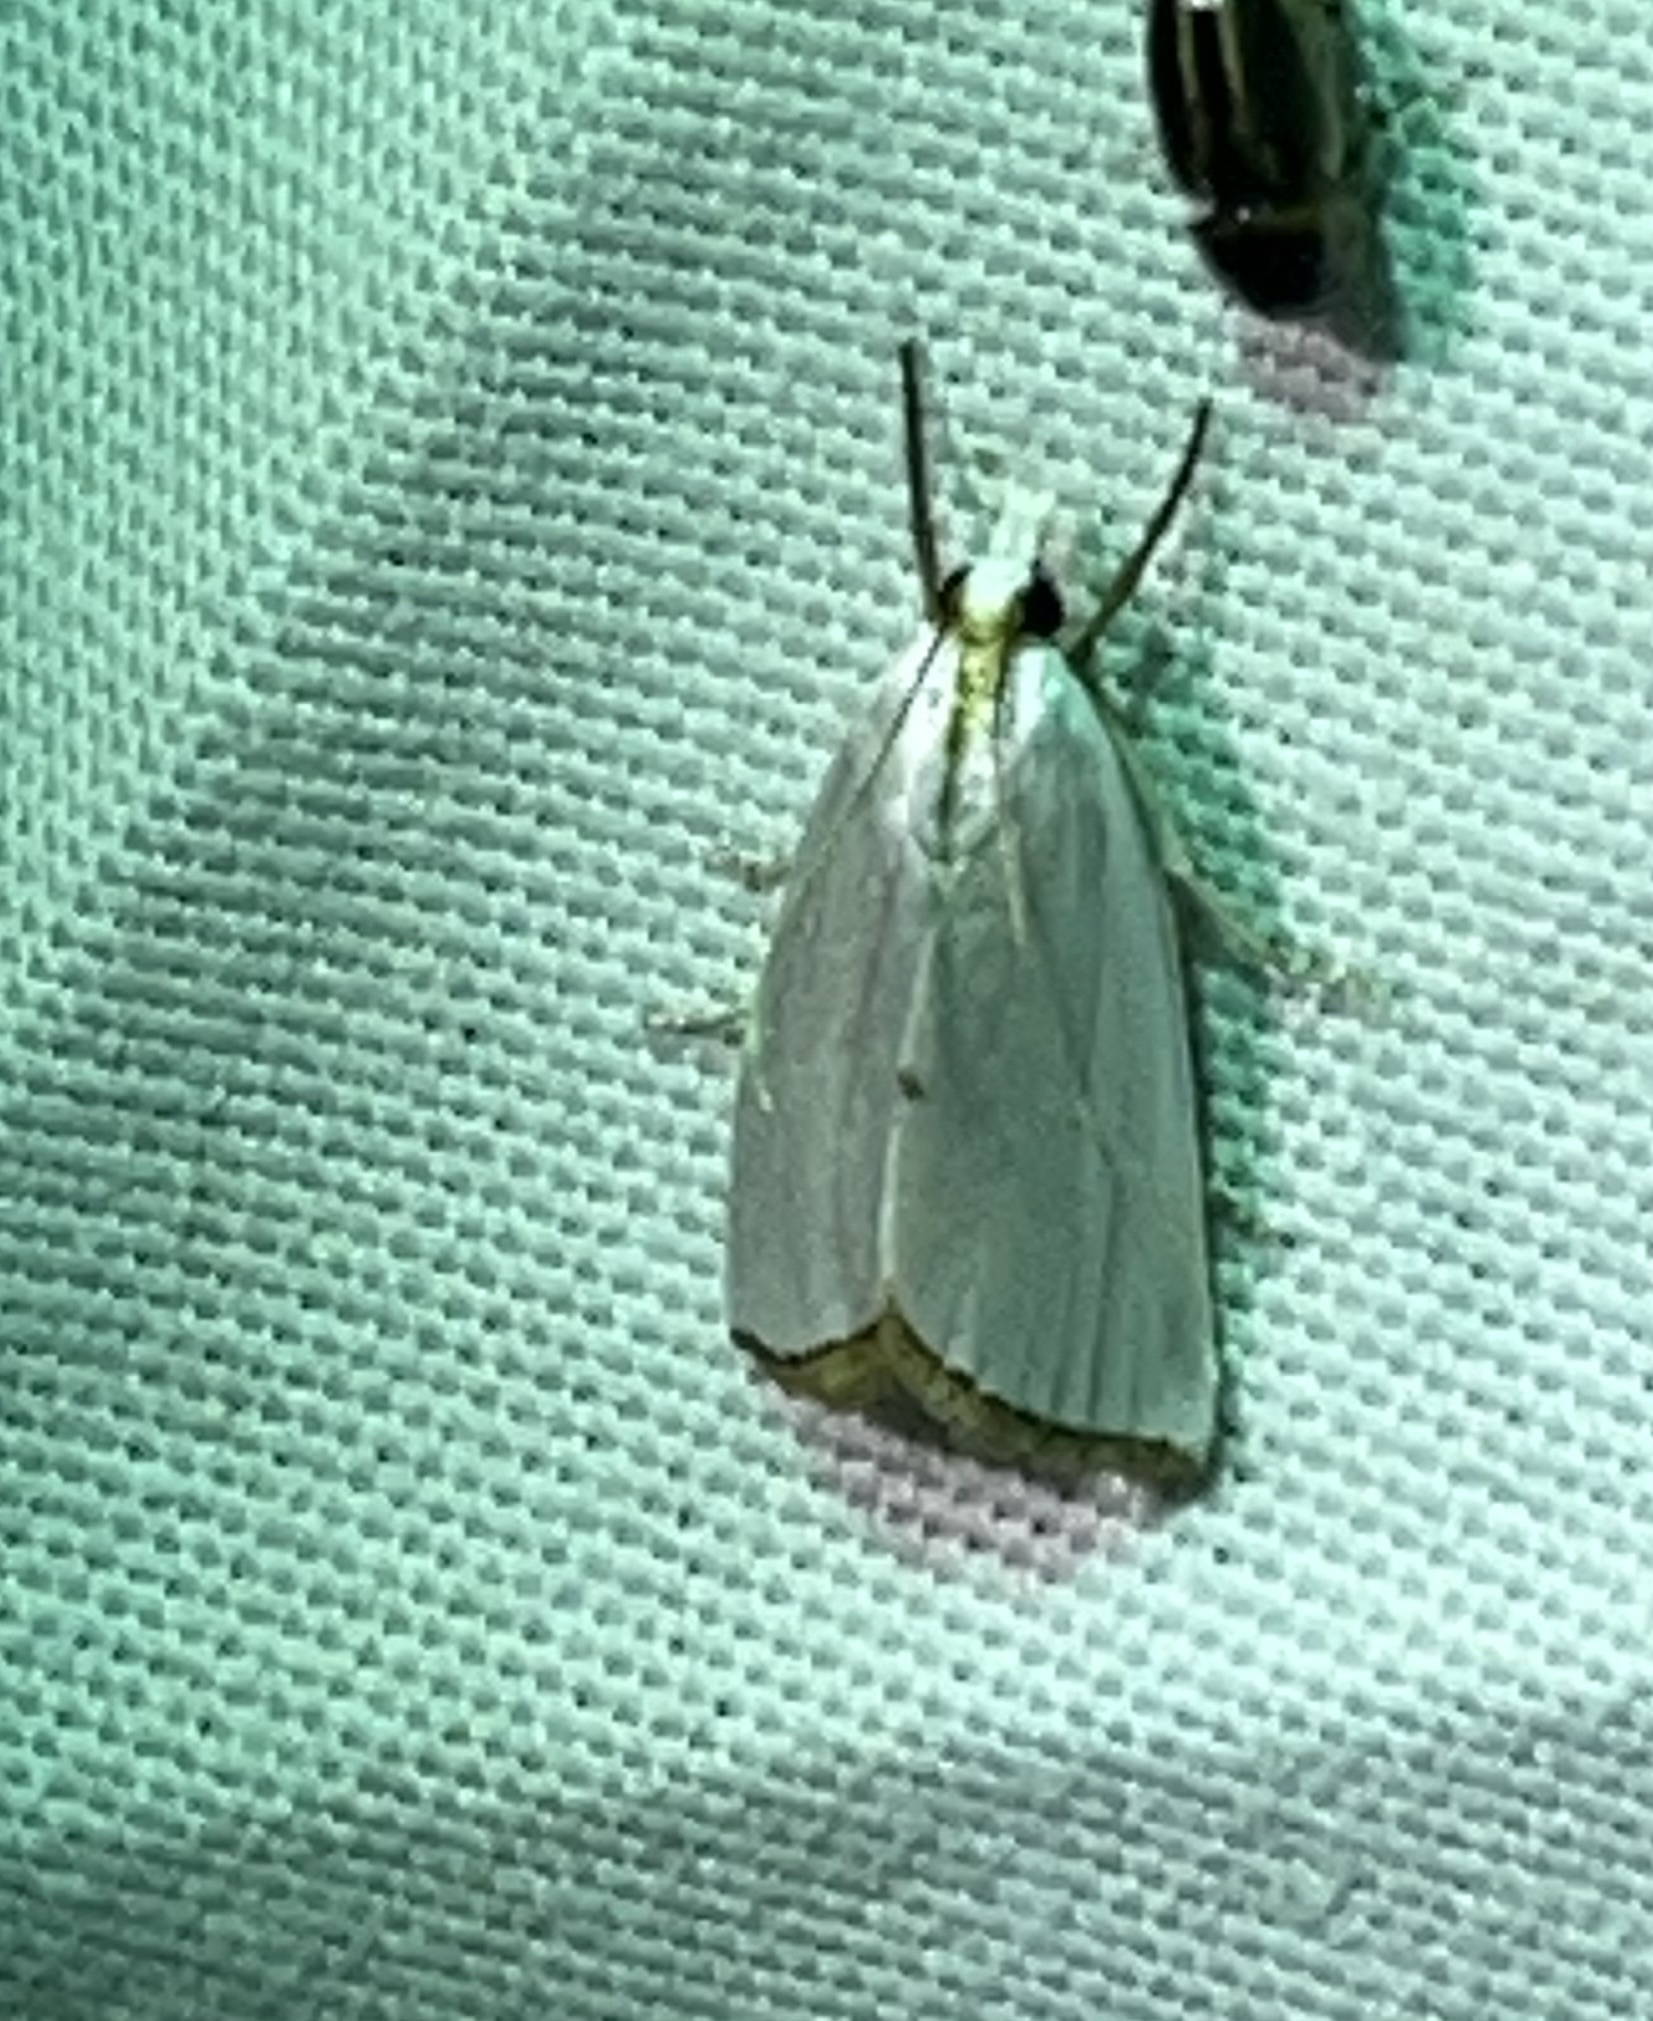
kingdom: Animalia
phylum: Arthropoda
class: Insecta
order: Lepidoptera
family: Crambidae
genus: Argyria
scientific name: Argyria nivalis
